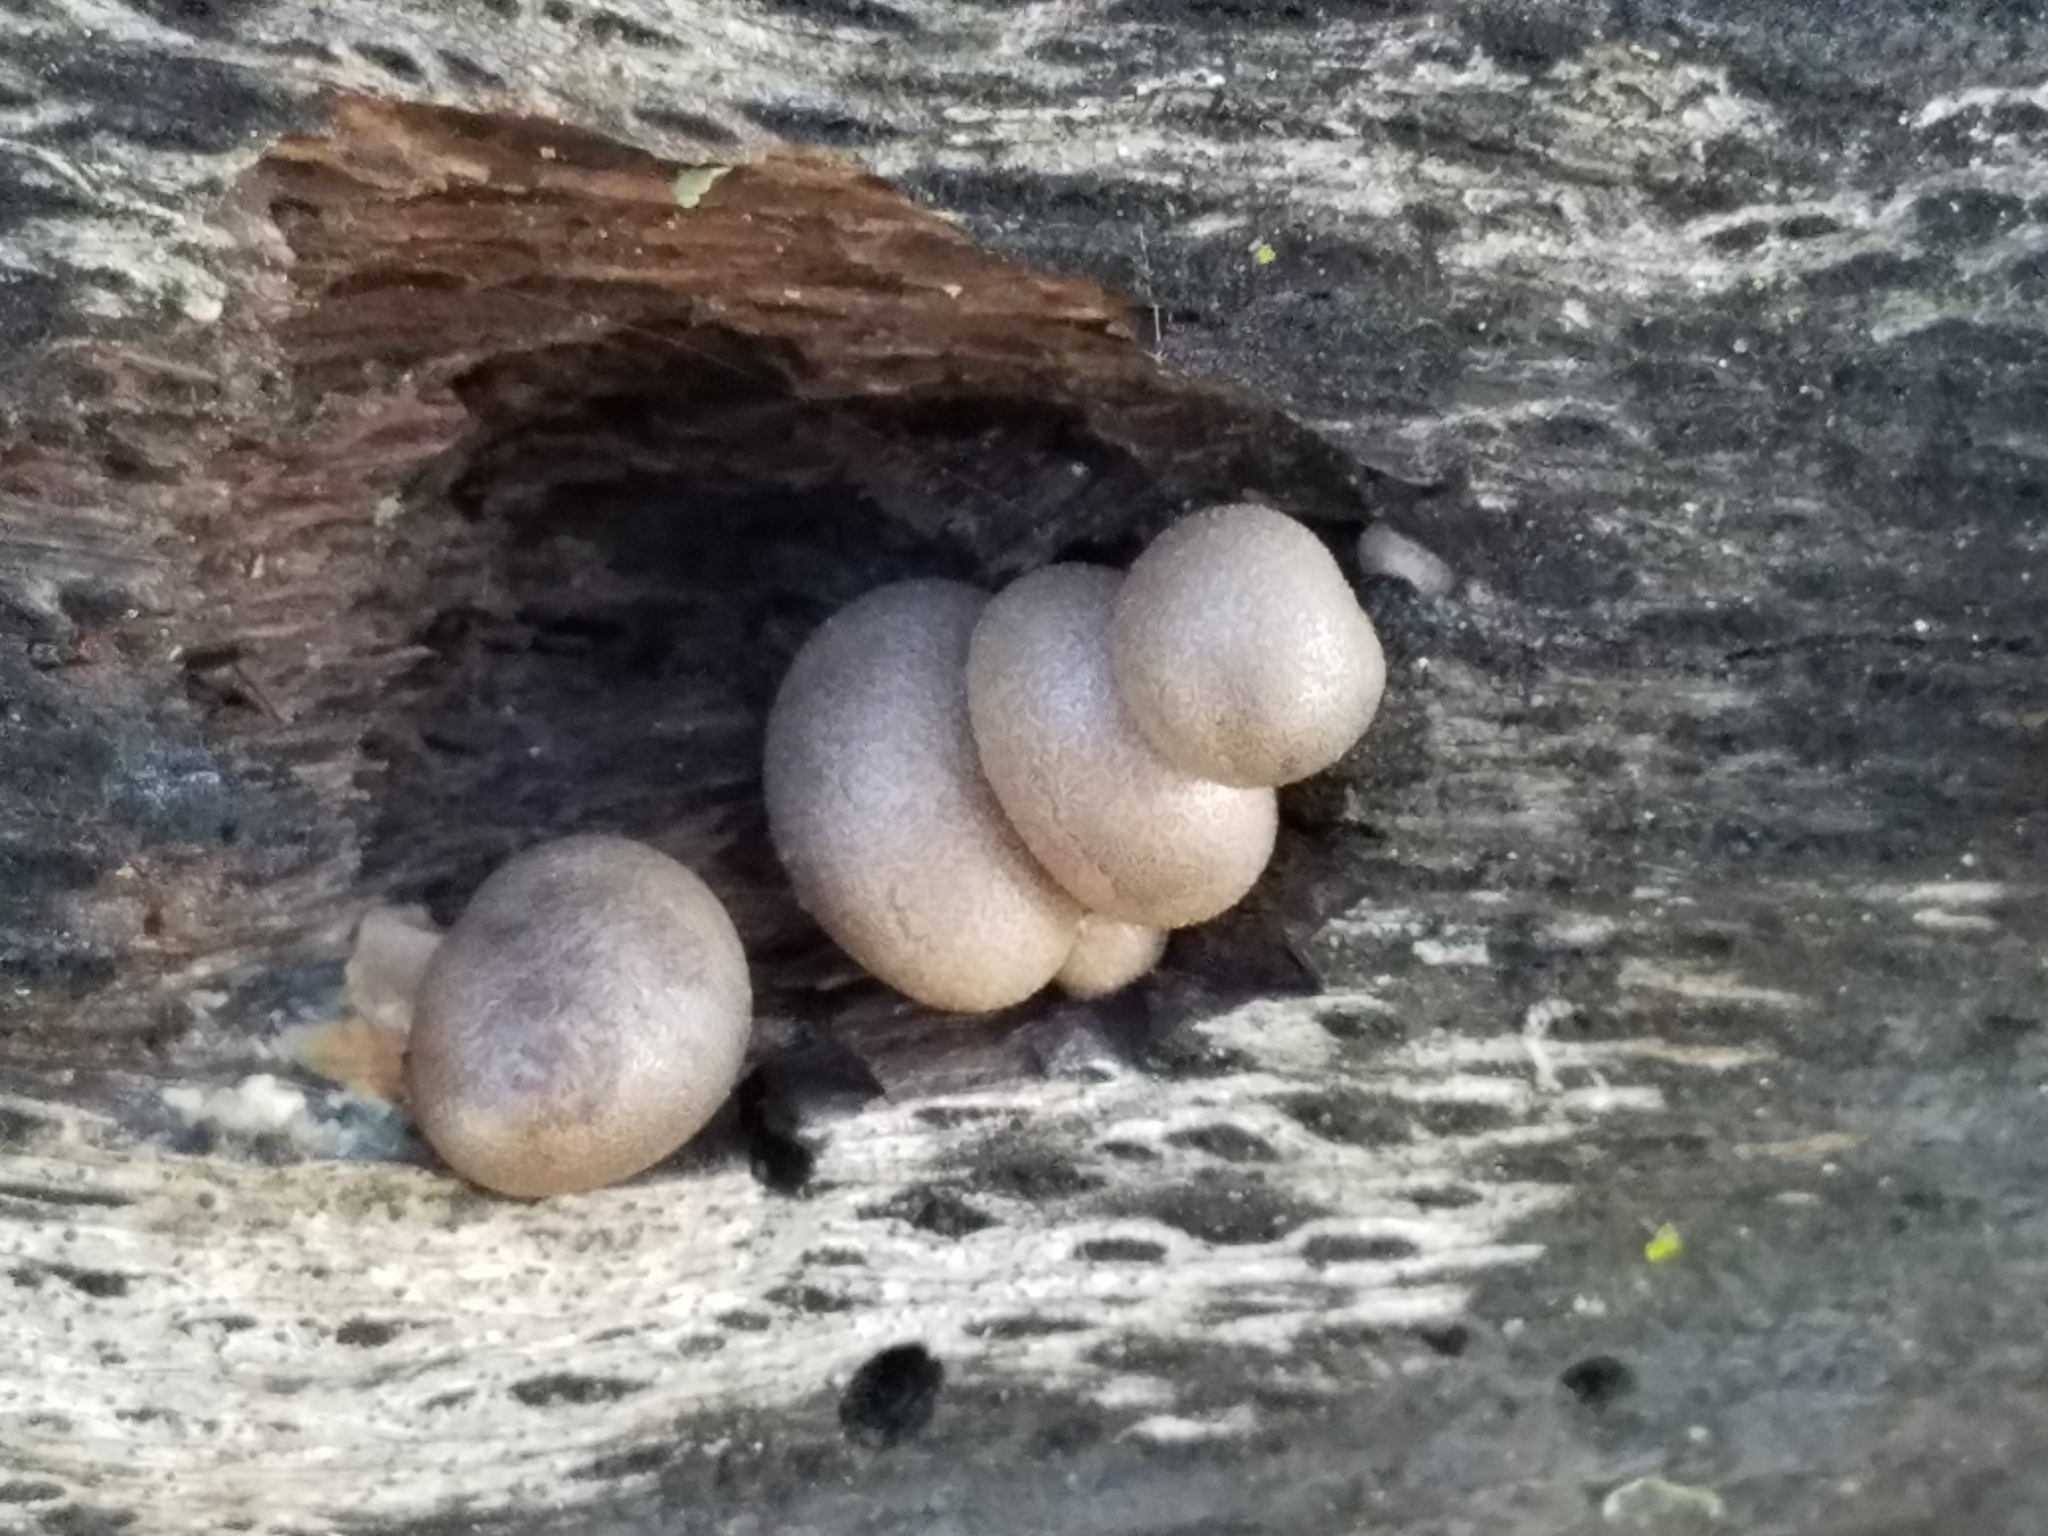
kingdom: Protozoa
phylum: Mycetozoa
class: Myxomycetes
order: Cribrariales
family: Tubiferaceae
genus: Lycogala
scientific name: Lycogala epidendrum
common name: Wolf's milk
